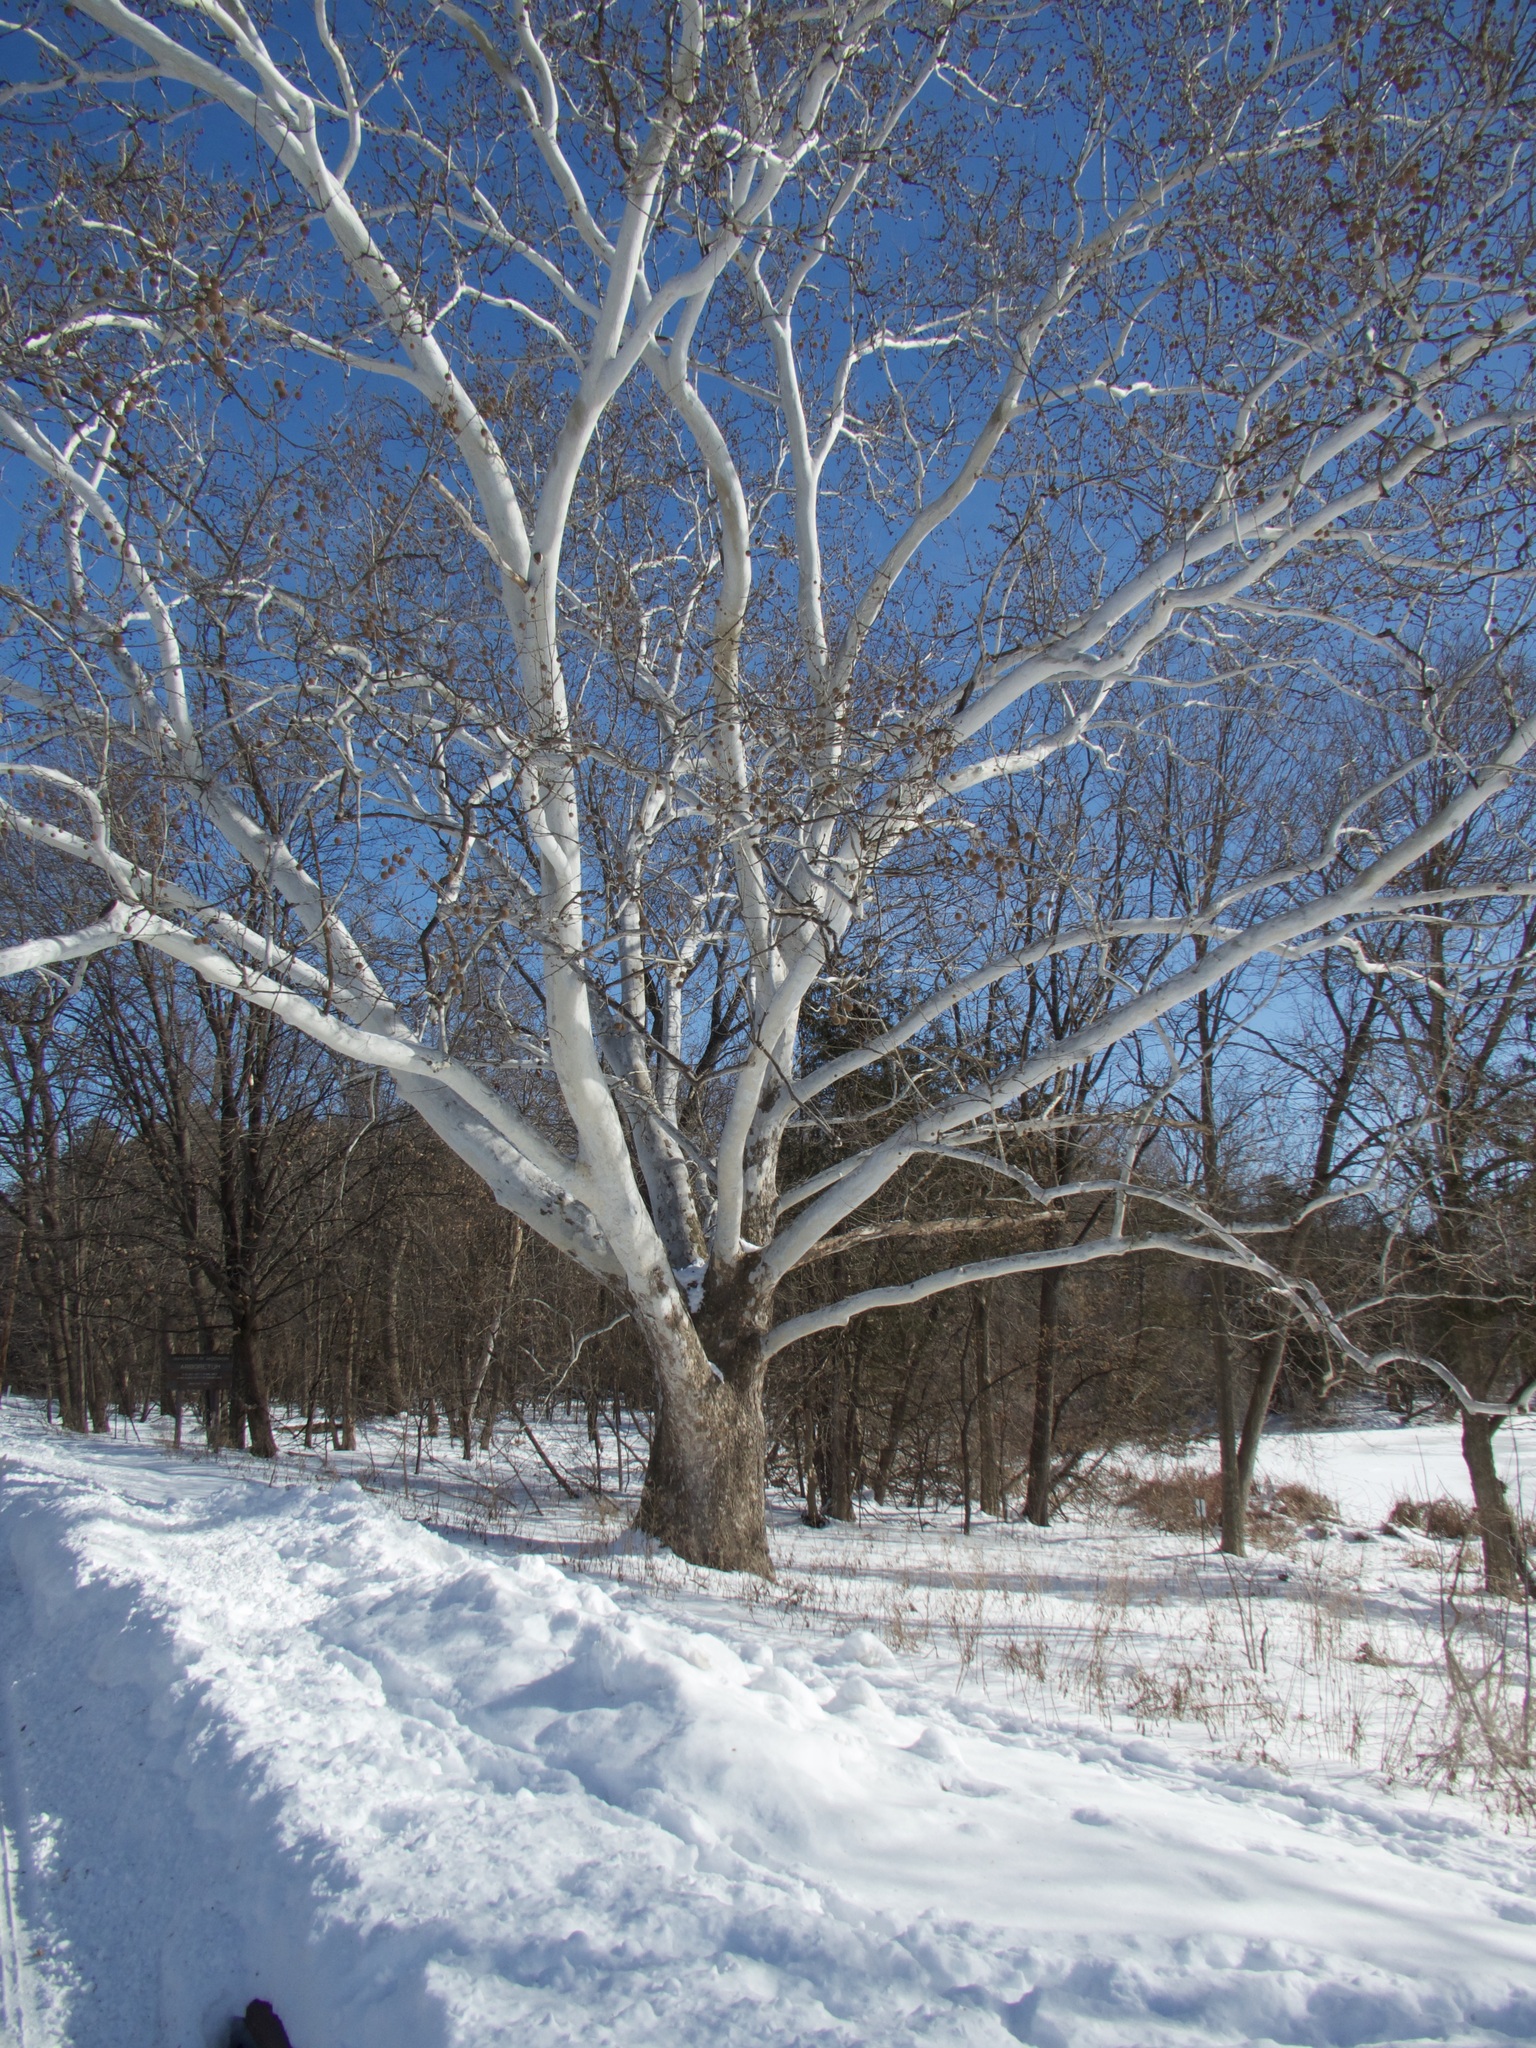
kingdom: Plantae
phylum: Tracheophyta
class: Magnoliopsida
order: Proteales
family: Platanaceae
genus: Platanus
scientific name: Platanus occidentalis
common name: American sycamore
